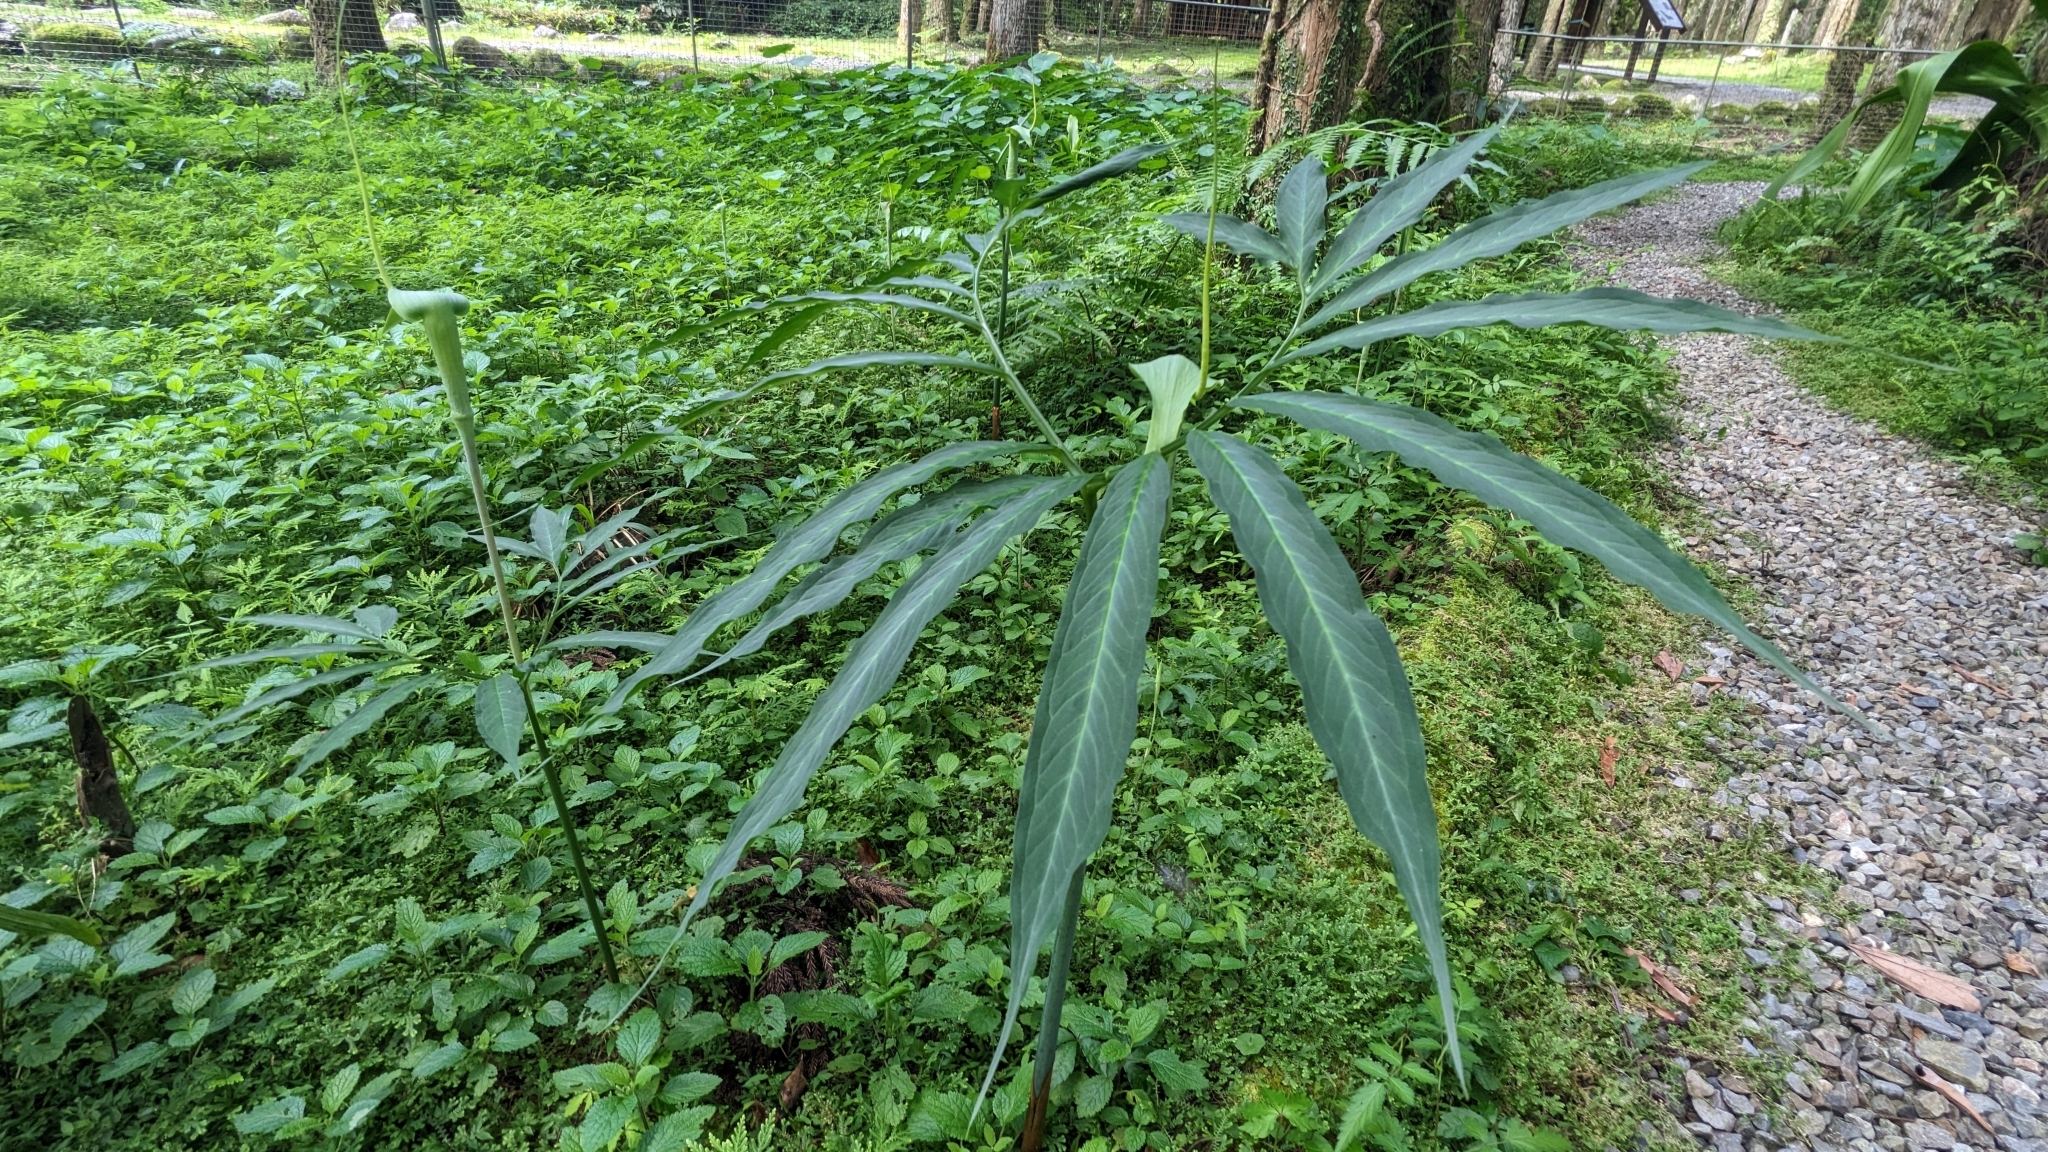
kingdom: Plantae
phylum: Tracheophyta
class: Liliopsida
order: Alismatales
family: Araceae
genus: Arisaema
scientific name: Arisaema heterophyllum
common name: Dancing crane cobra lily
